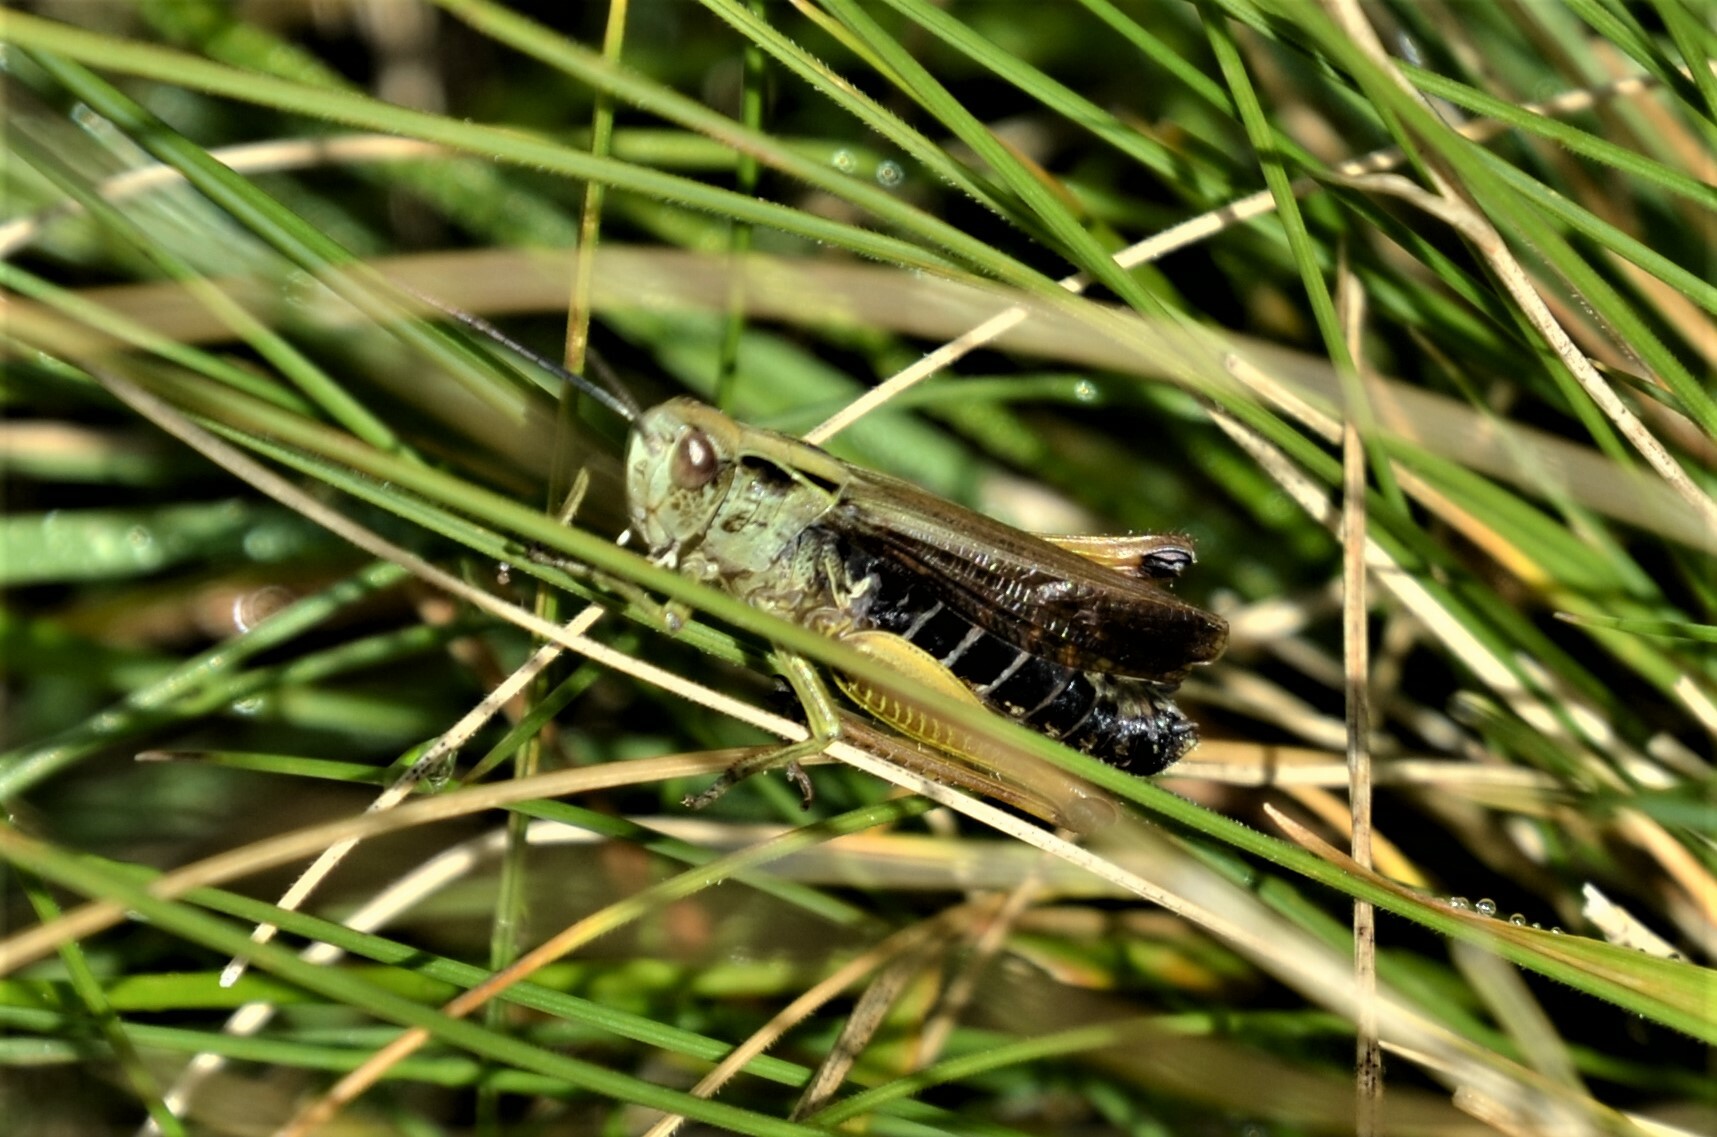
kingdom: Animalia
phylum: Arthropoda
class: Insecta
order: Orthoptera
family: Acrididae
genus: Omocestus
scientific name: Omocestus viridulus
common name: Common green grasshopper
